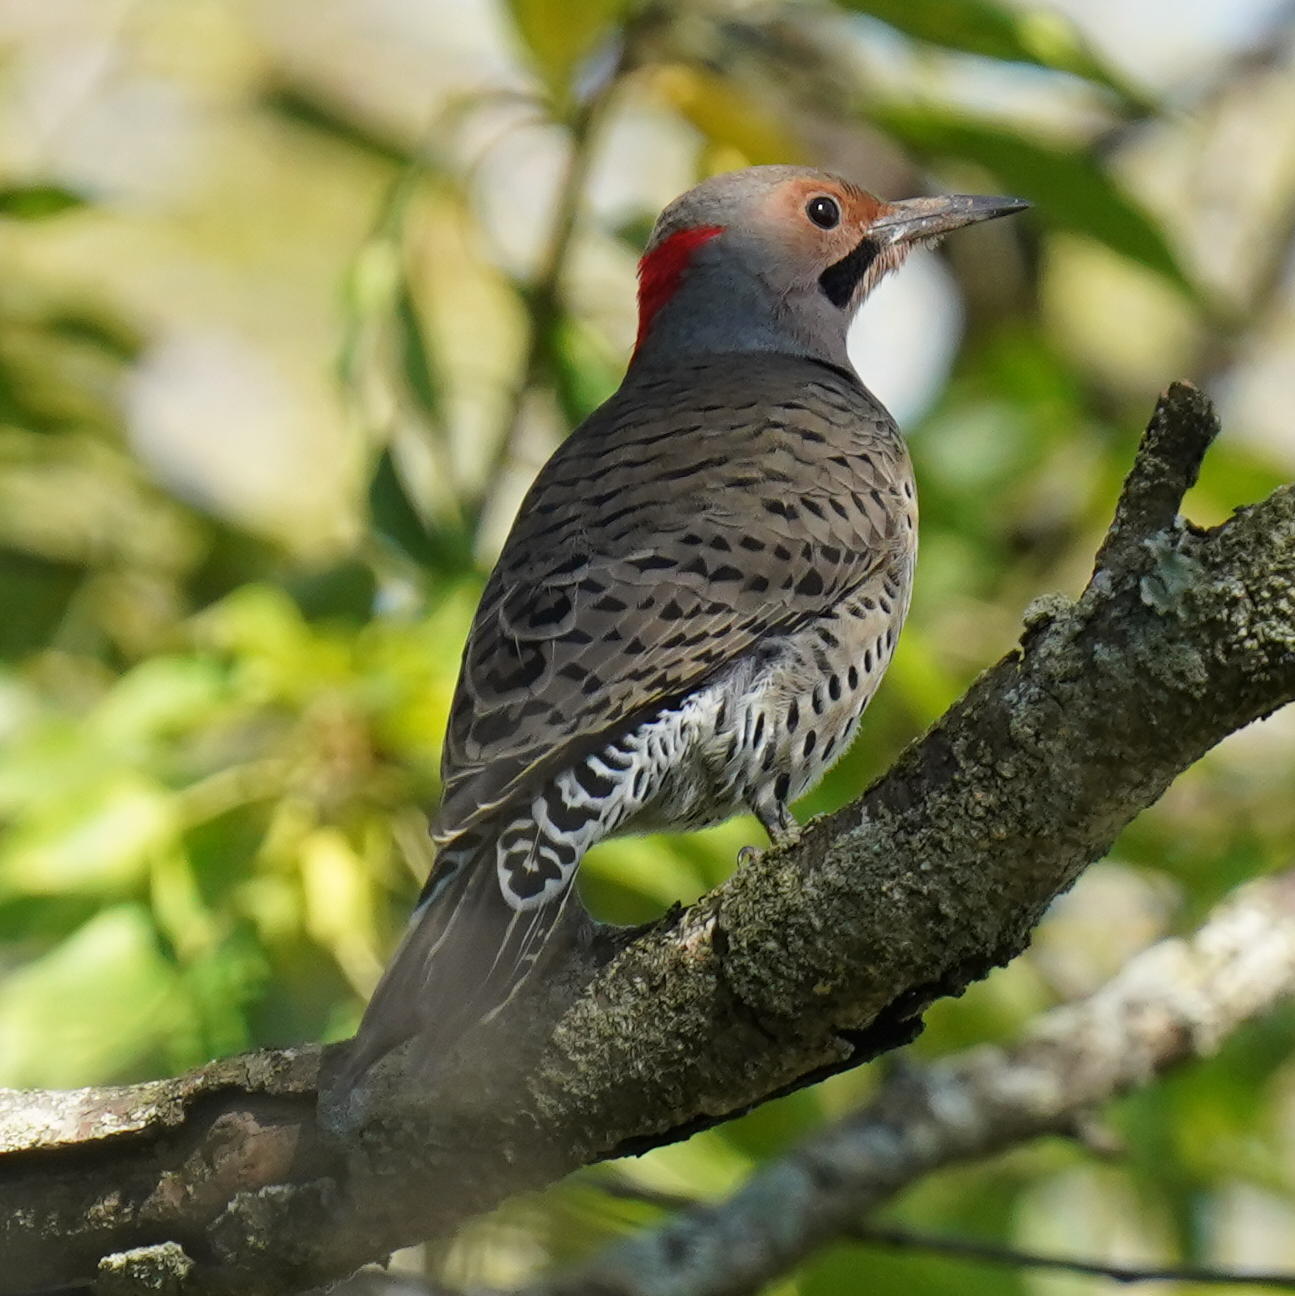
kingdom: Animalia
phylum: Chordata
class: Aves
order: Piciformes
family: Picidae
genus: Colaptes
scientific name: Colaptes auratus
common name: Northern flicker
